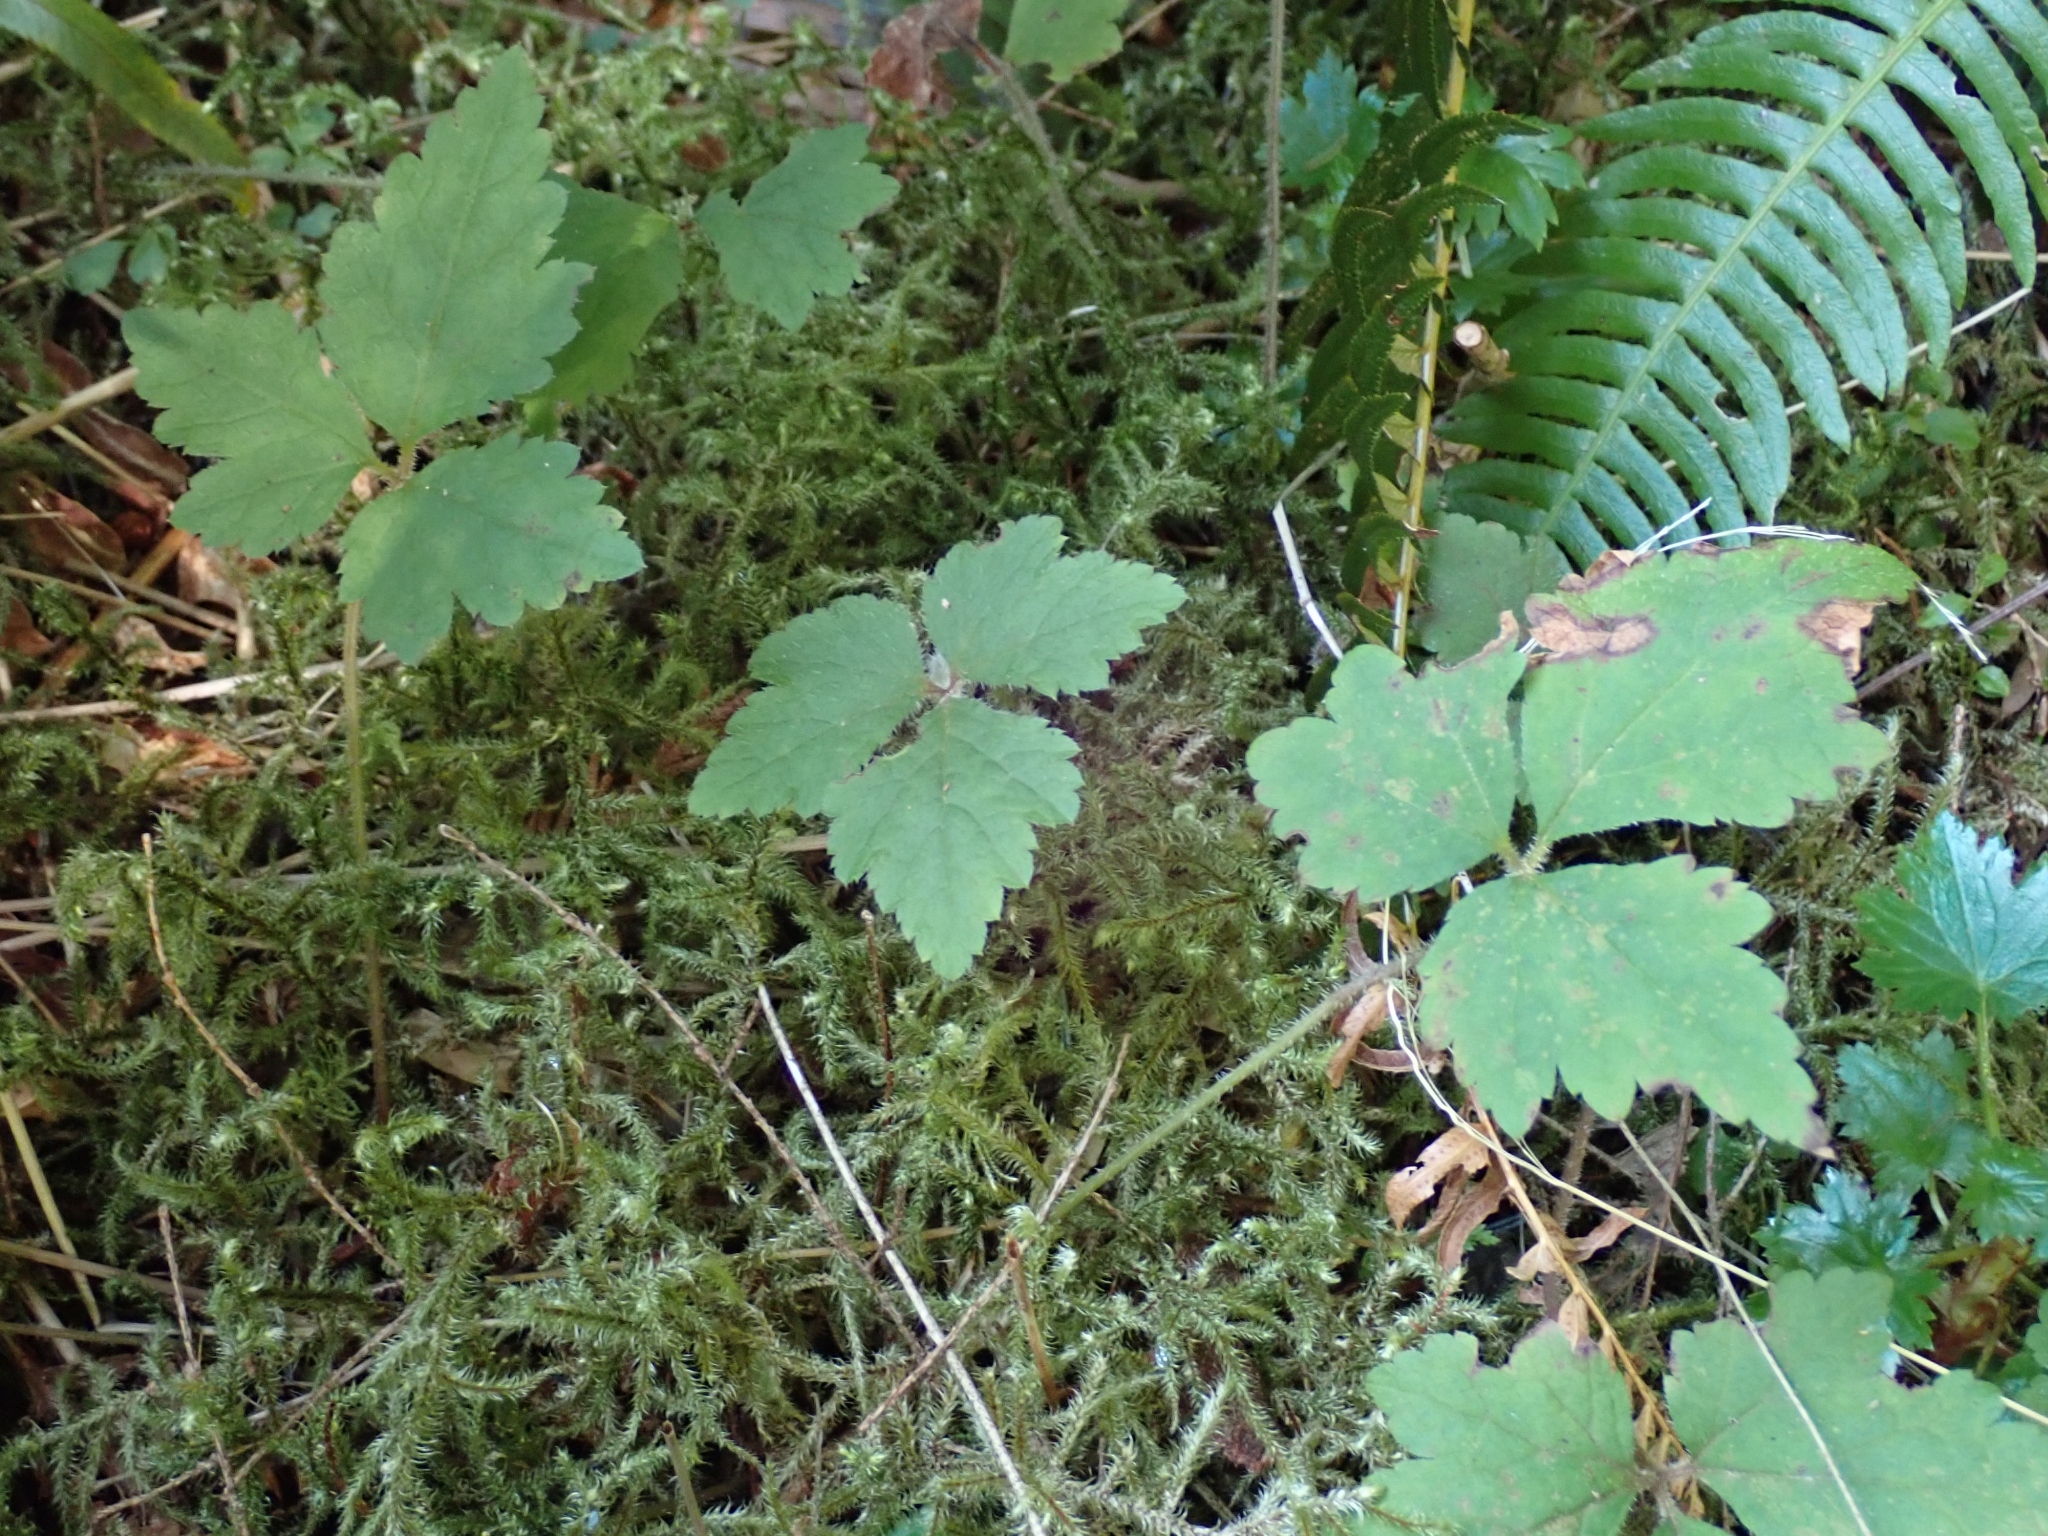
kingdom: Plantae
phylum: Tracheophyta
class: Magnoliopsida
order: Saxifragales
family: Saxifragaceae
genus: Tiarella
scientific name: Tiarella trifoliata
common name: Sugar-scoop
